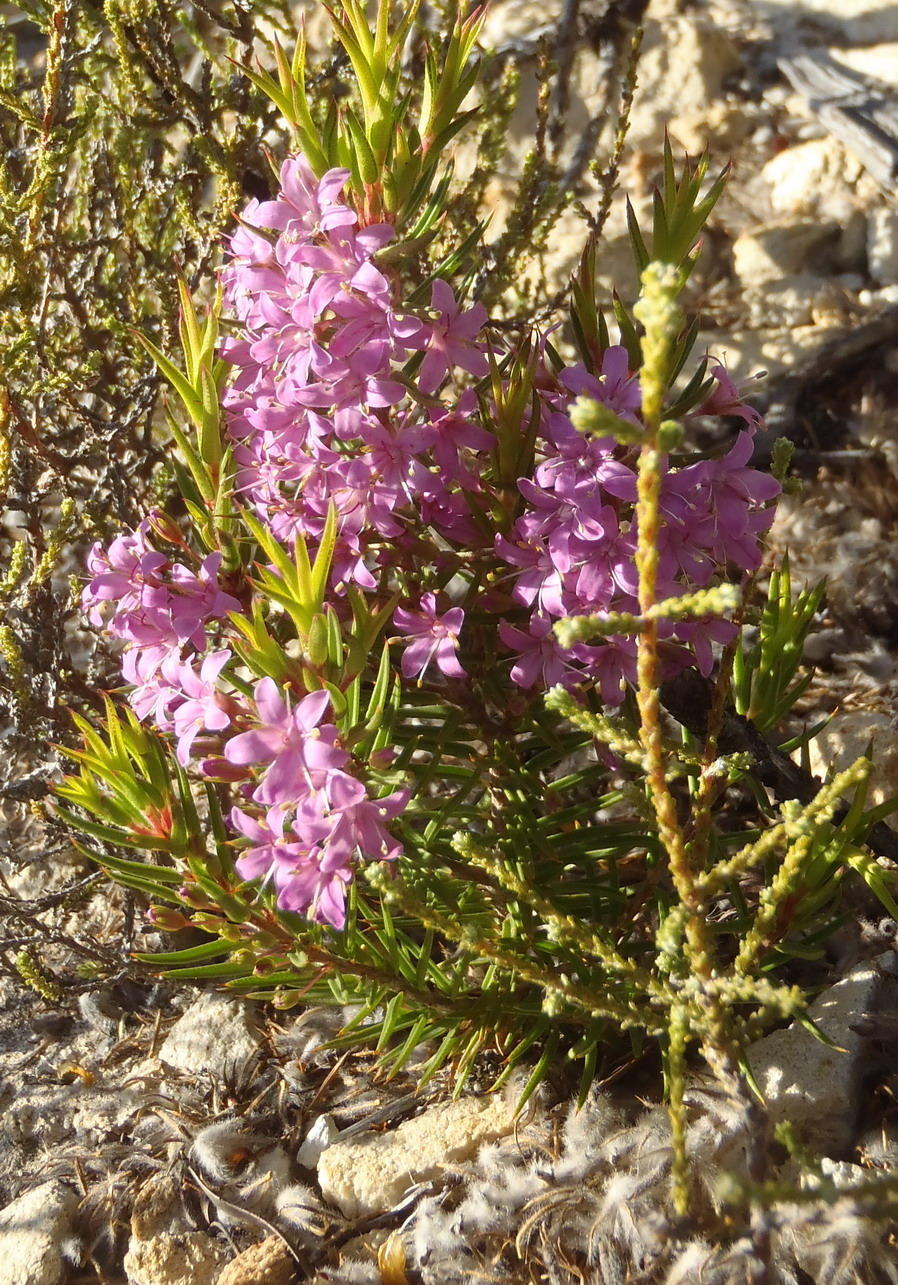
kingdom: Plantae
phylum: Tracheophyta
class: Magnoliopsida
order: Sapindales
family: Rutaceae
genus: Agathosma
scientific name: Agathosma pungens
